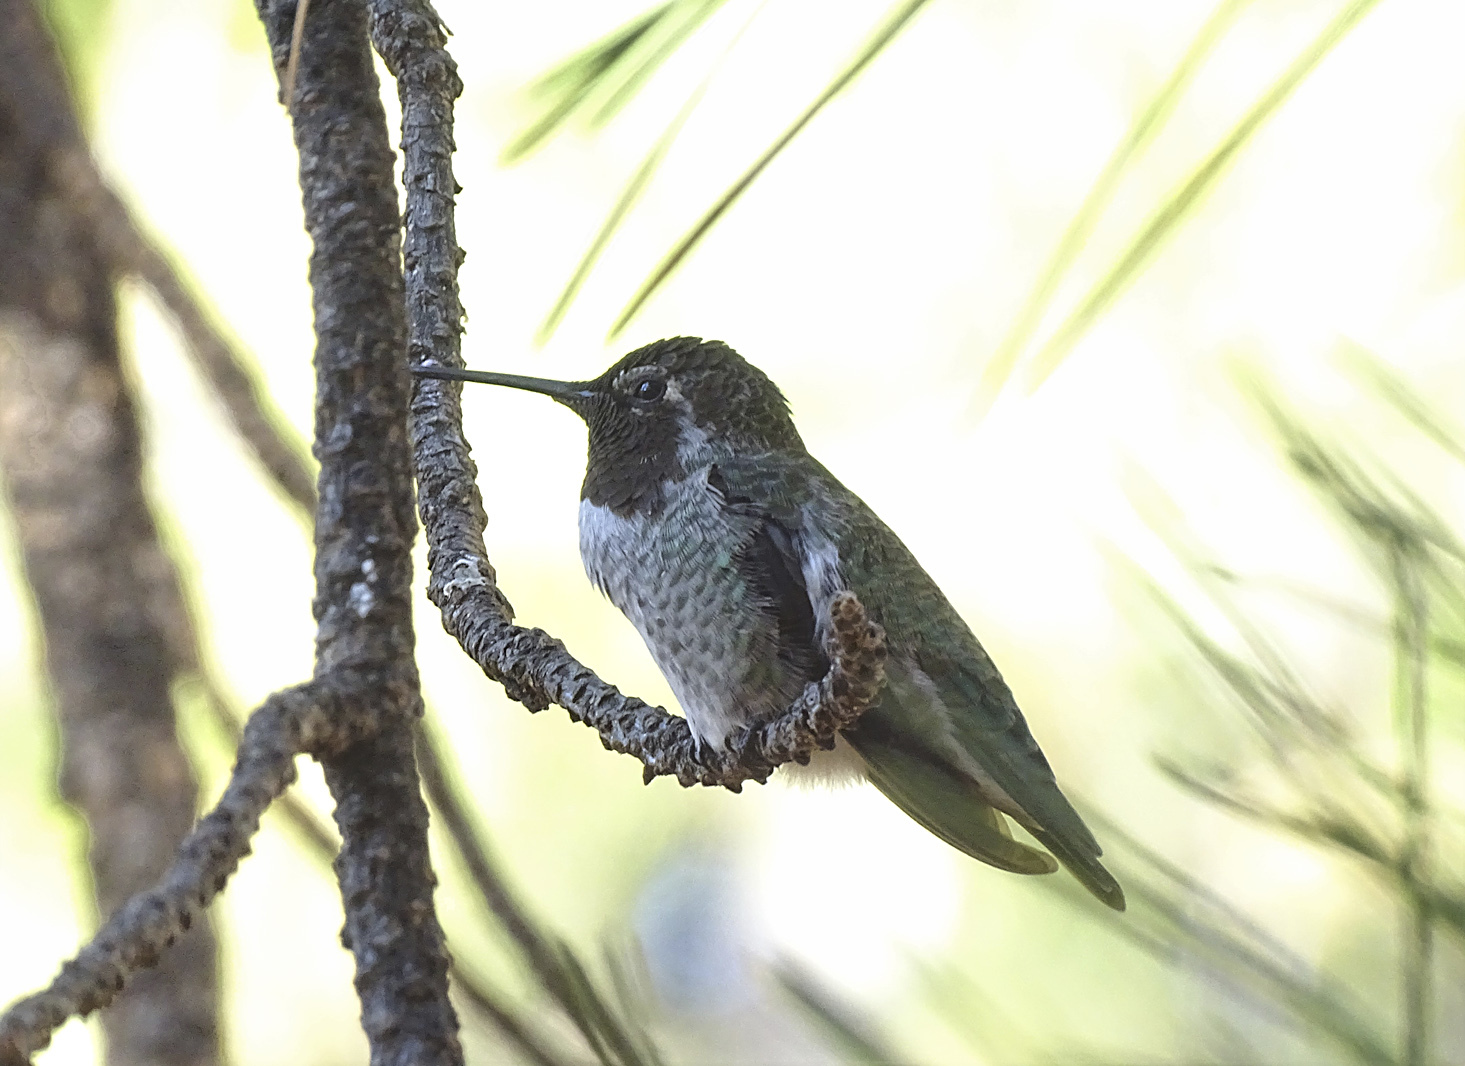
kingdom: Animalia
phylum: Chordata
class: Aves
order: Apodiformes
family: Trochilidae
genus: Calypte
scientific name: Calypte anna
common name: Anna's hummingbird
